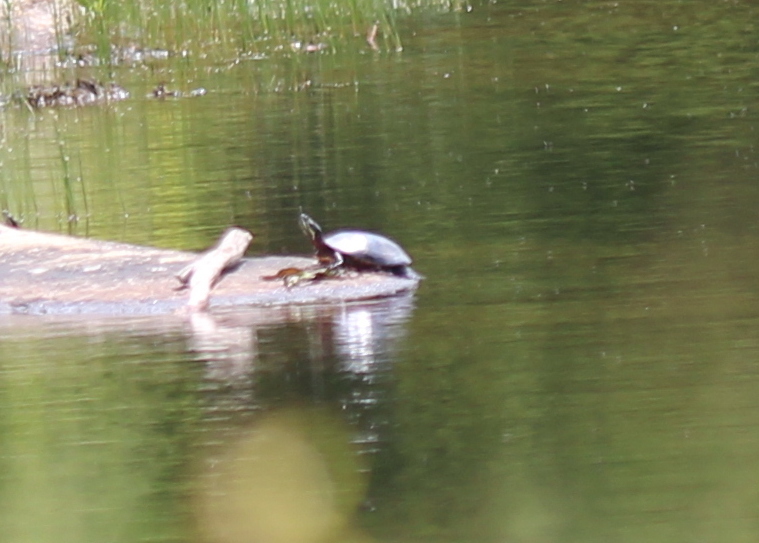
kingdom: Animalia
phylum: Chordata
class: Testudines
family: Emydidae
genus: Chrysemys
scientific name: Chrysemys picta
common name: Painted turtle
